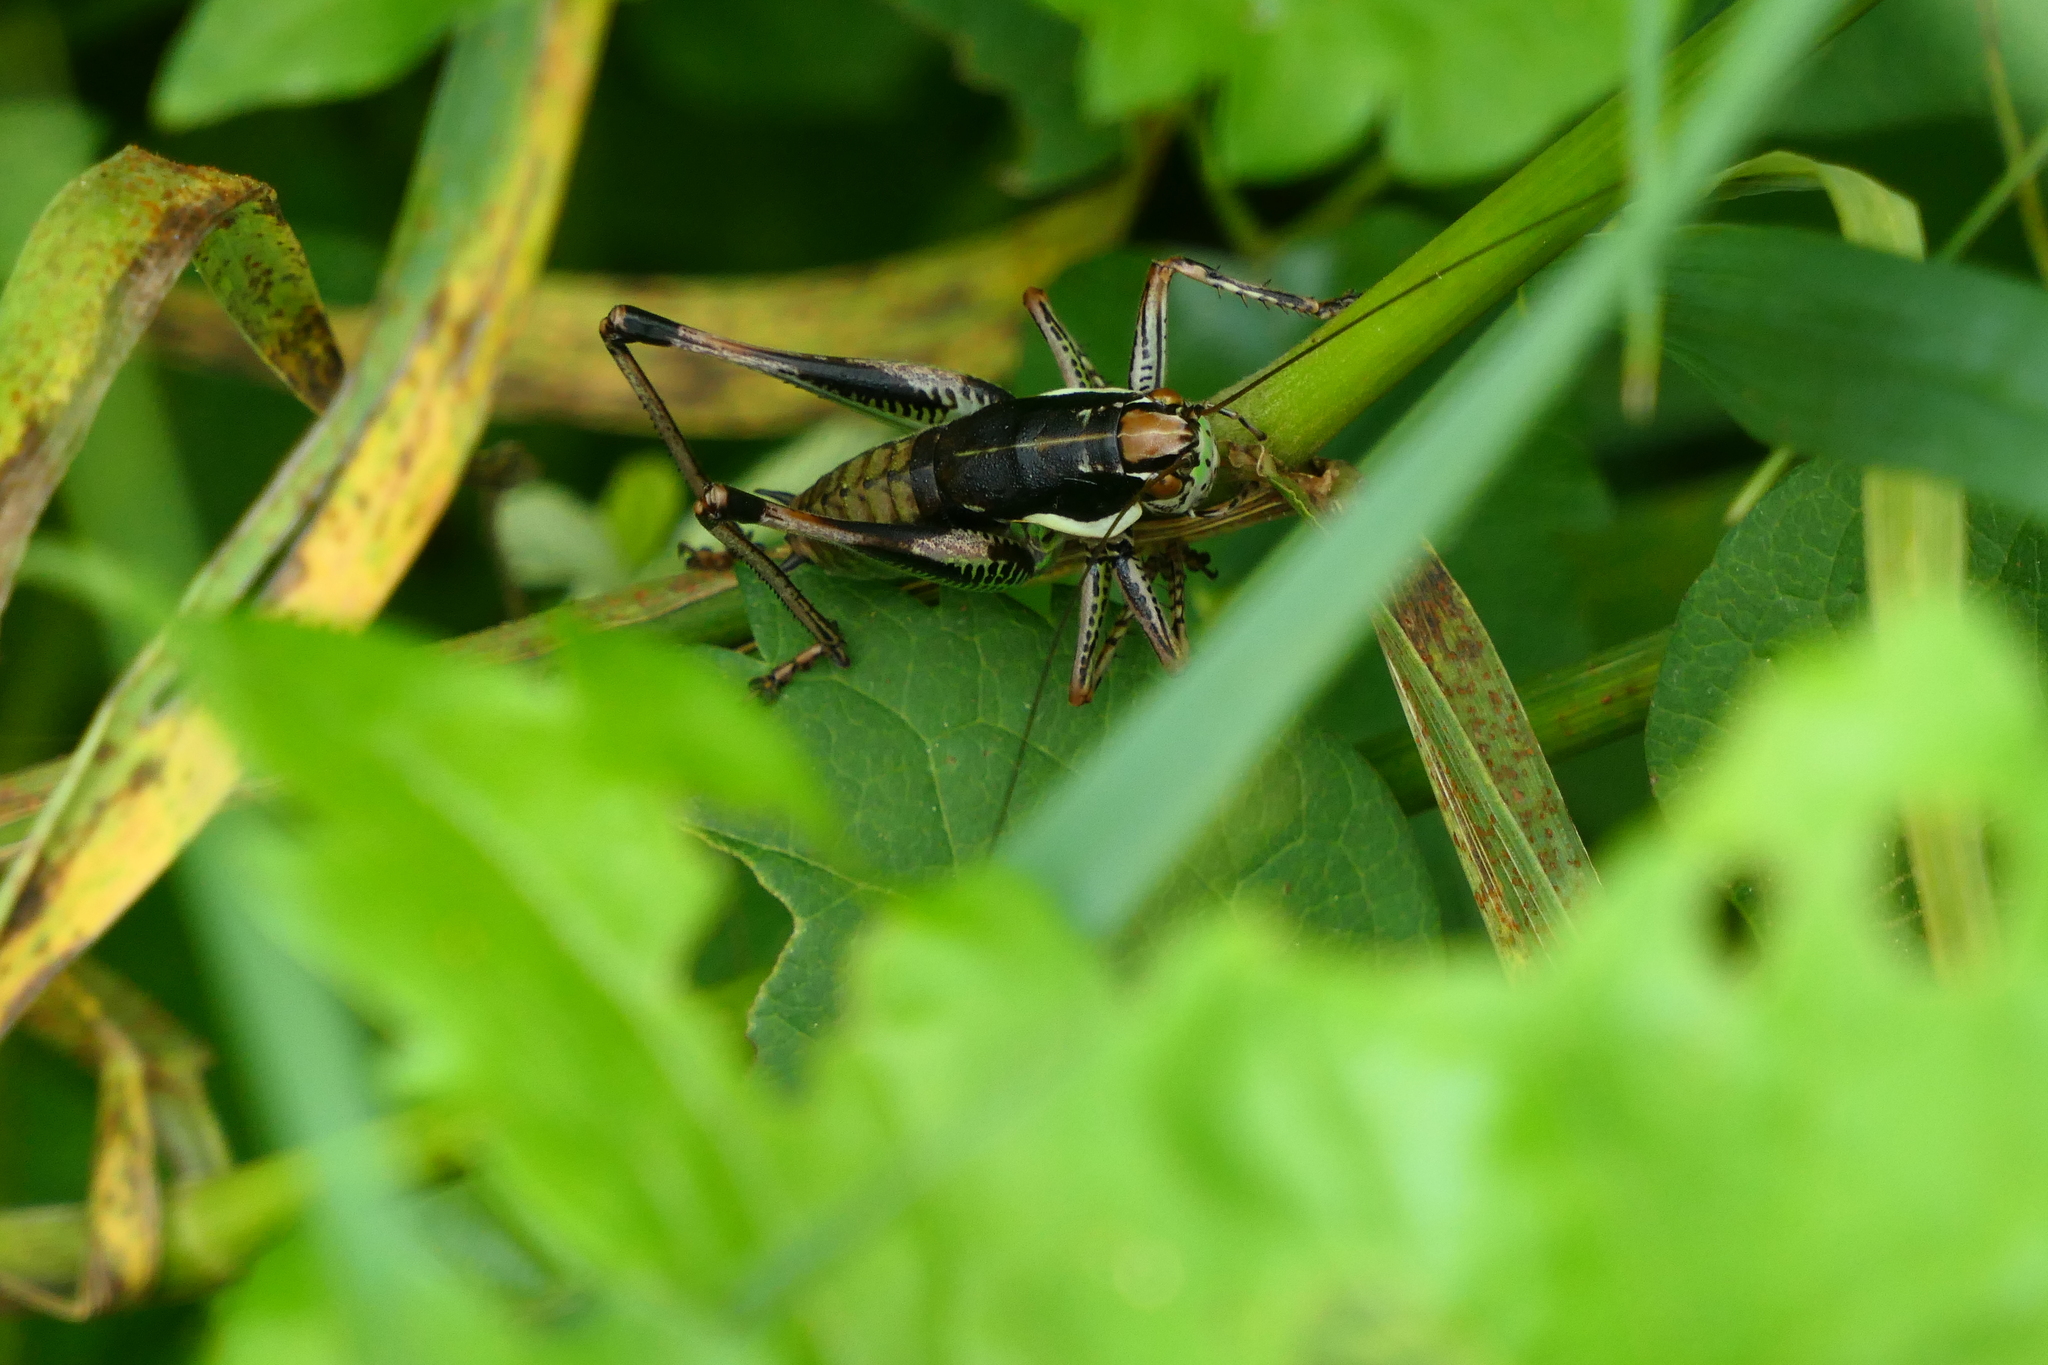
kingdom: Animalia
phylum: Arthropoda
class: Insecta
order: Orthoptera
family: Tettigoniidae
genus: Eupholidoptera
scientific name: Eupholidoptera schmidti
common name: Schmidt's marbled bush-cricket
